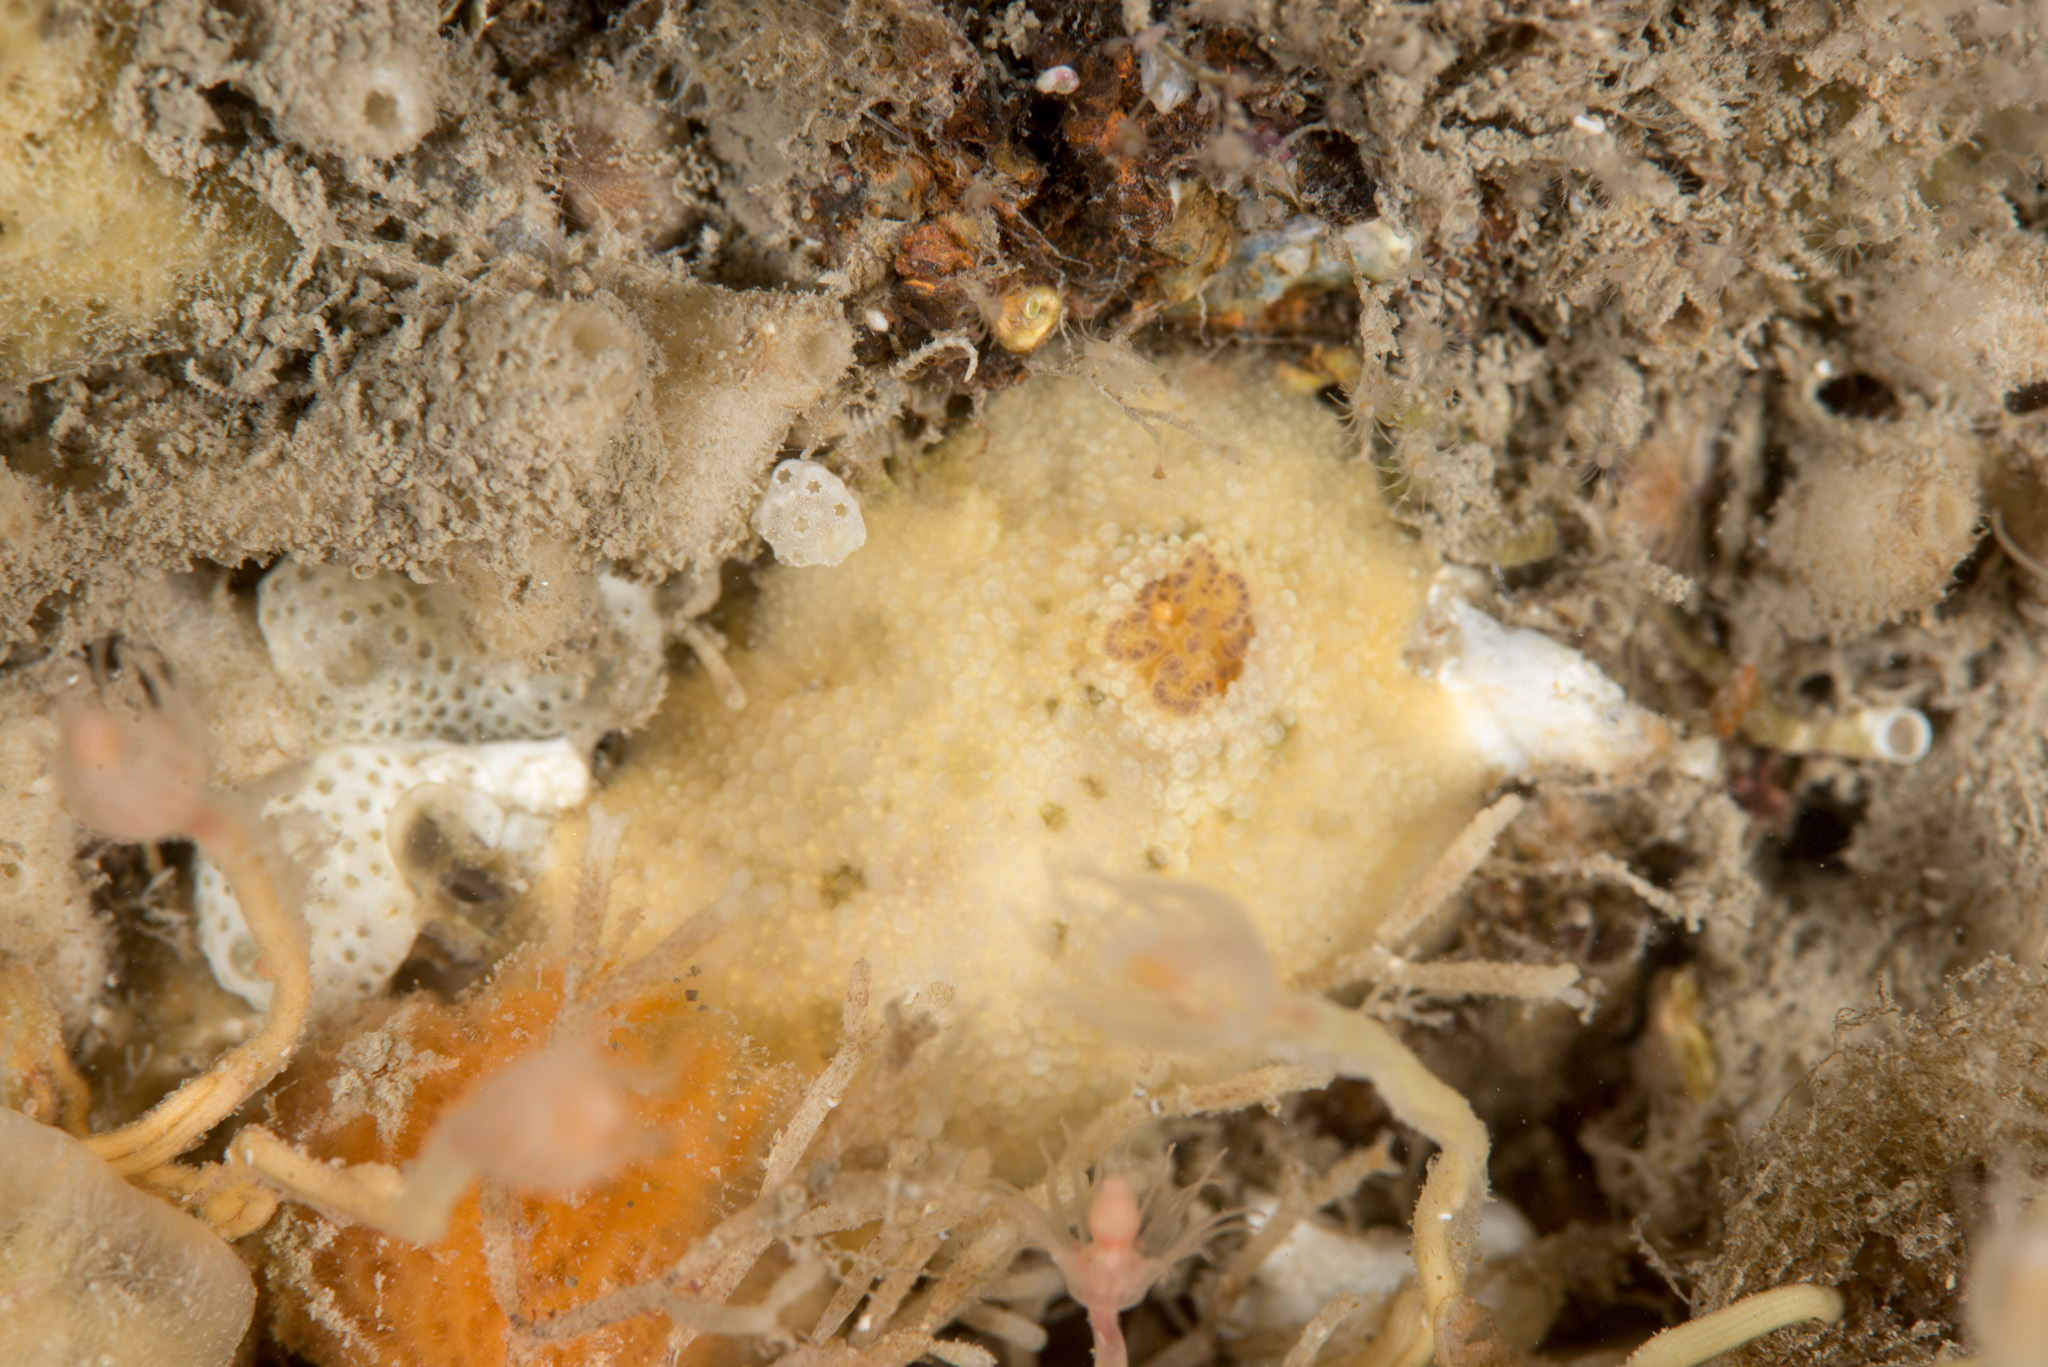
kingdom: Animalia
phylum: Mollusca
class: Gastropoda
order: Nudibranchia
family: Dorididae
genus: Doris
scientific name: Doris pseudoargus
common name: Sea lemon
